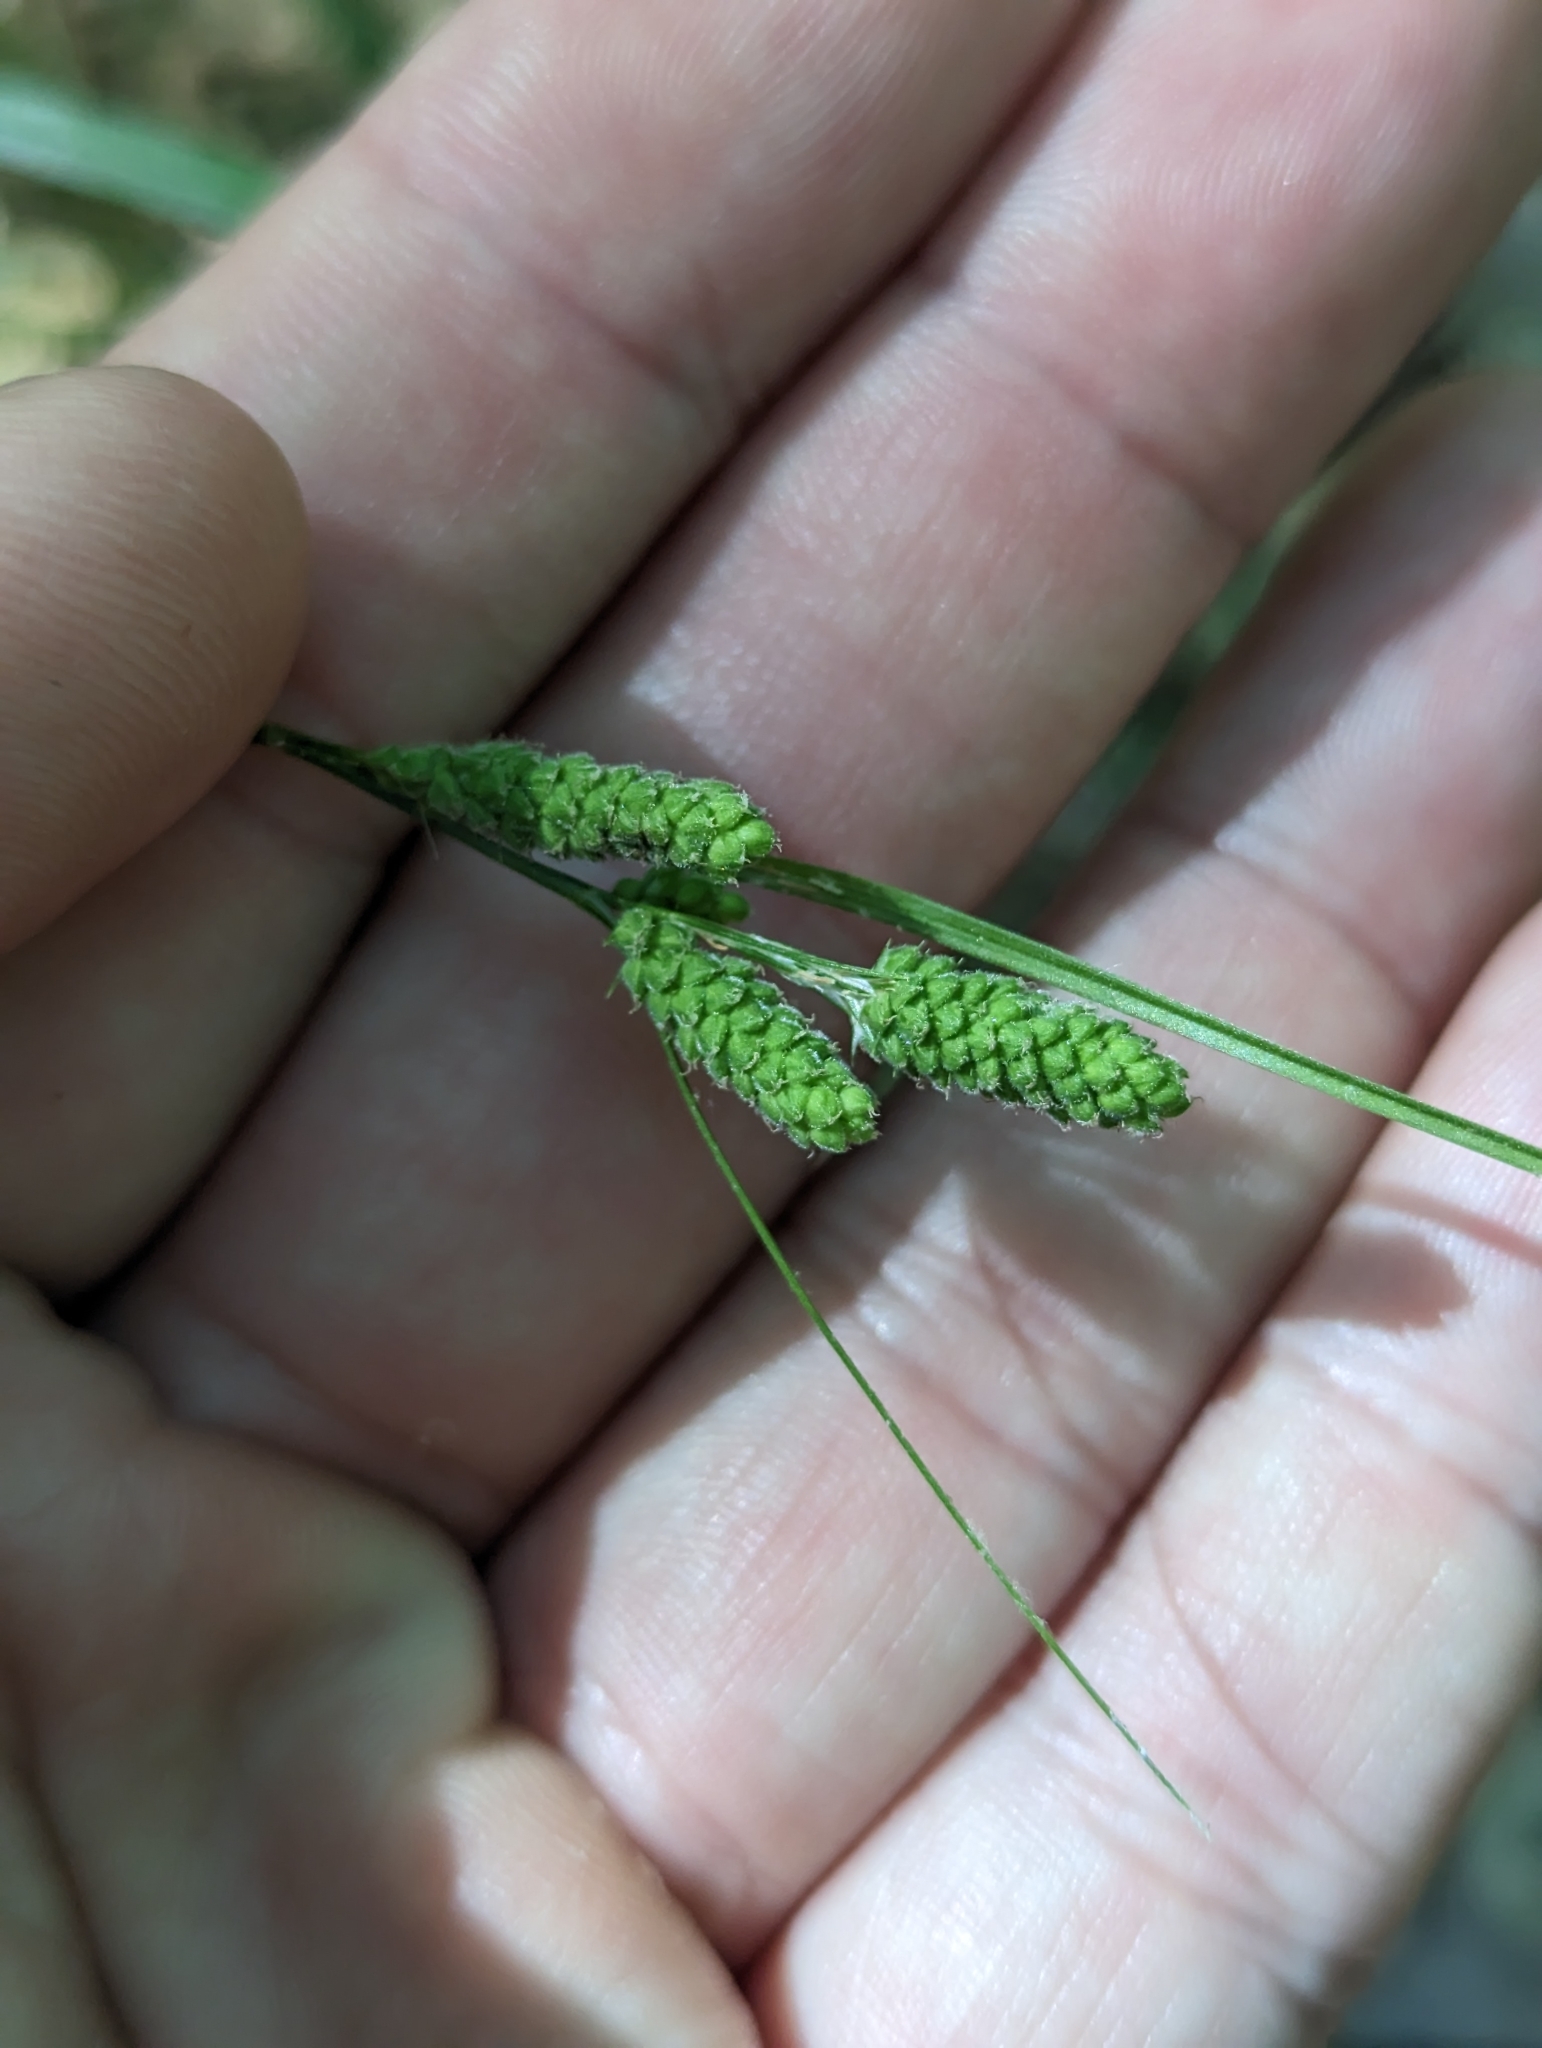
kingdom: Plantae
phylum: Tracheophyta
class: Liliopsida
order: Poales
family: Cyperaceae
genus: Carex
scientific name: Carex swanii
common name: Downy green sedge
